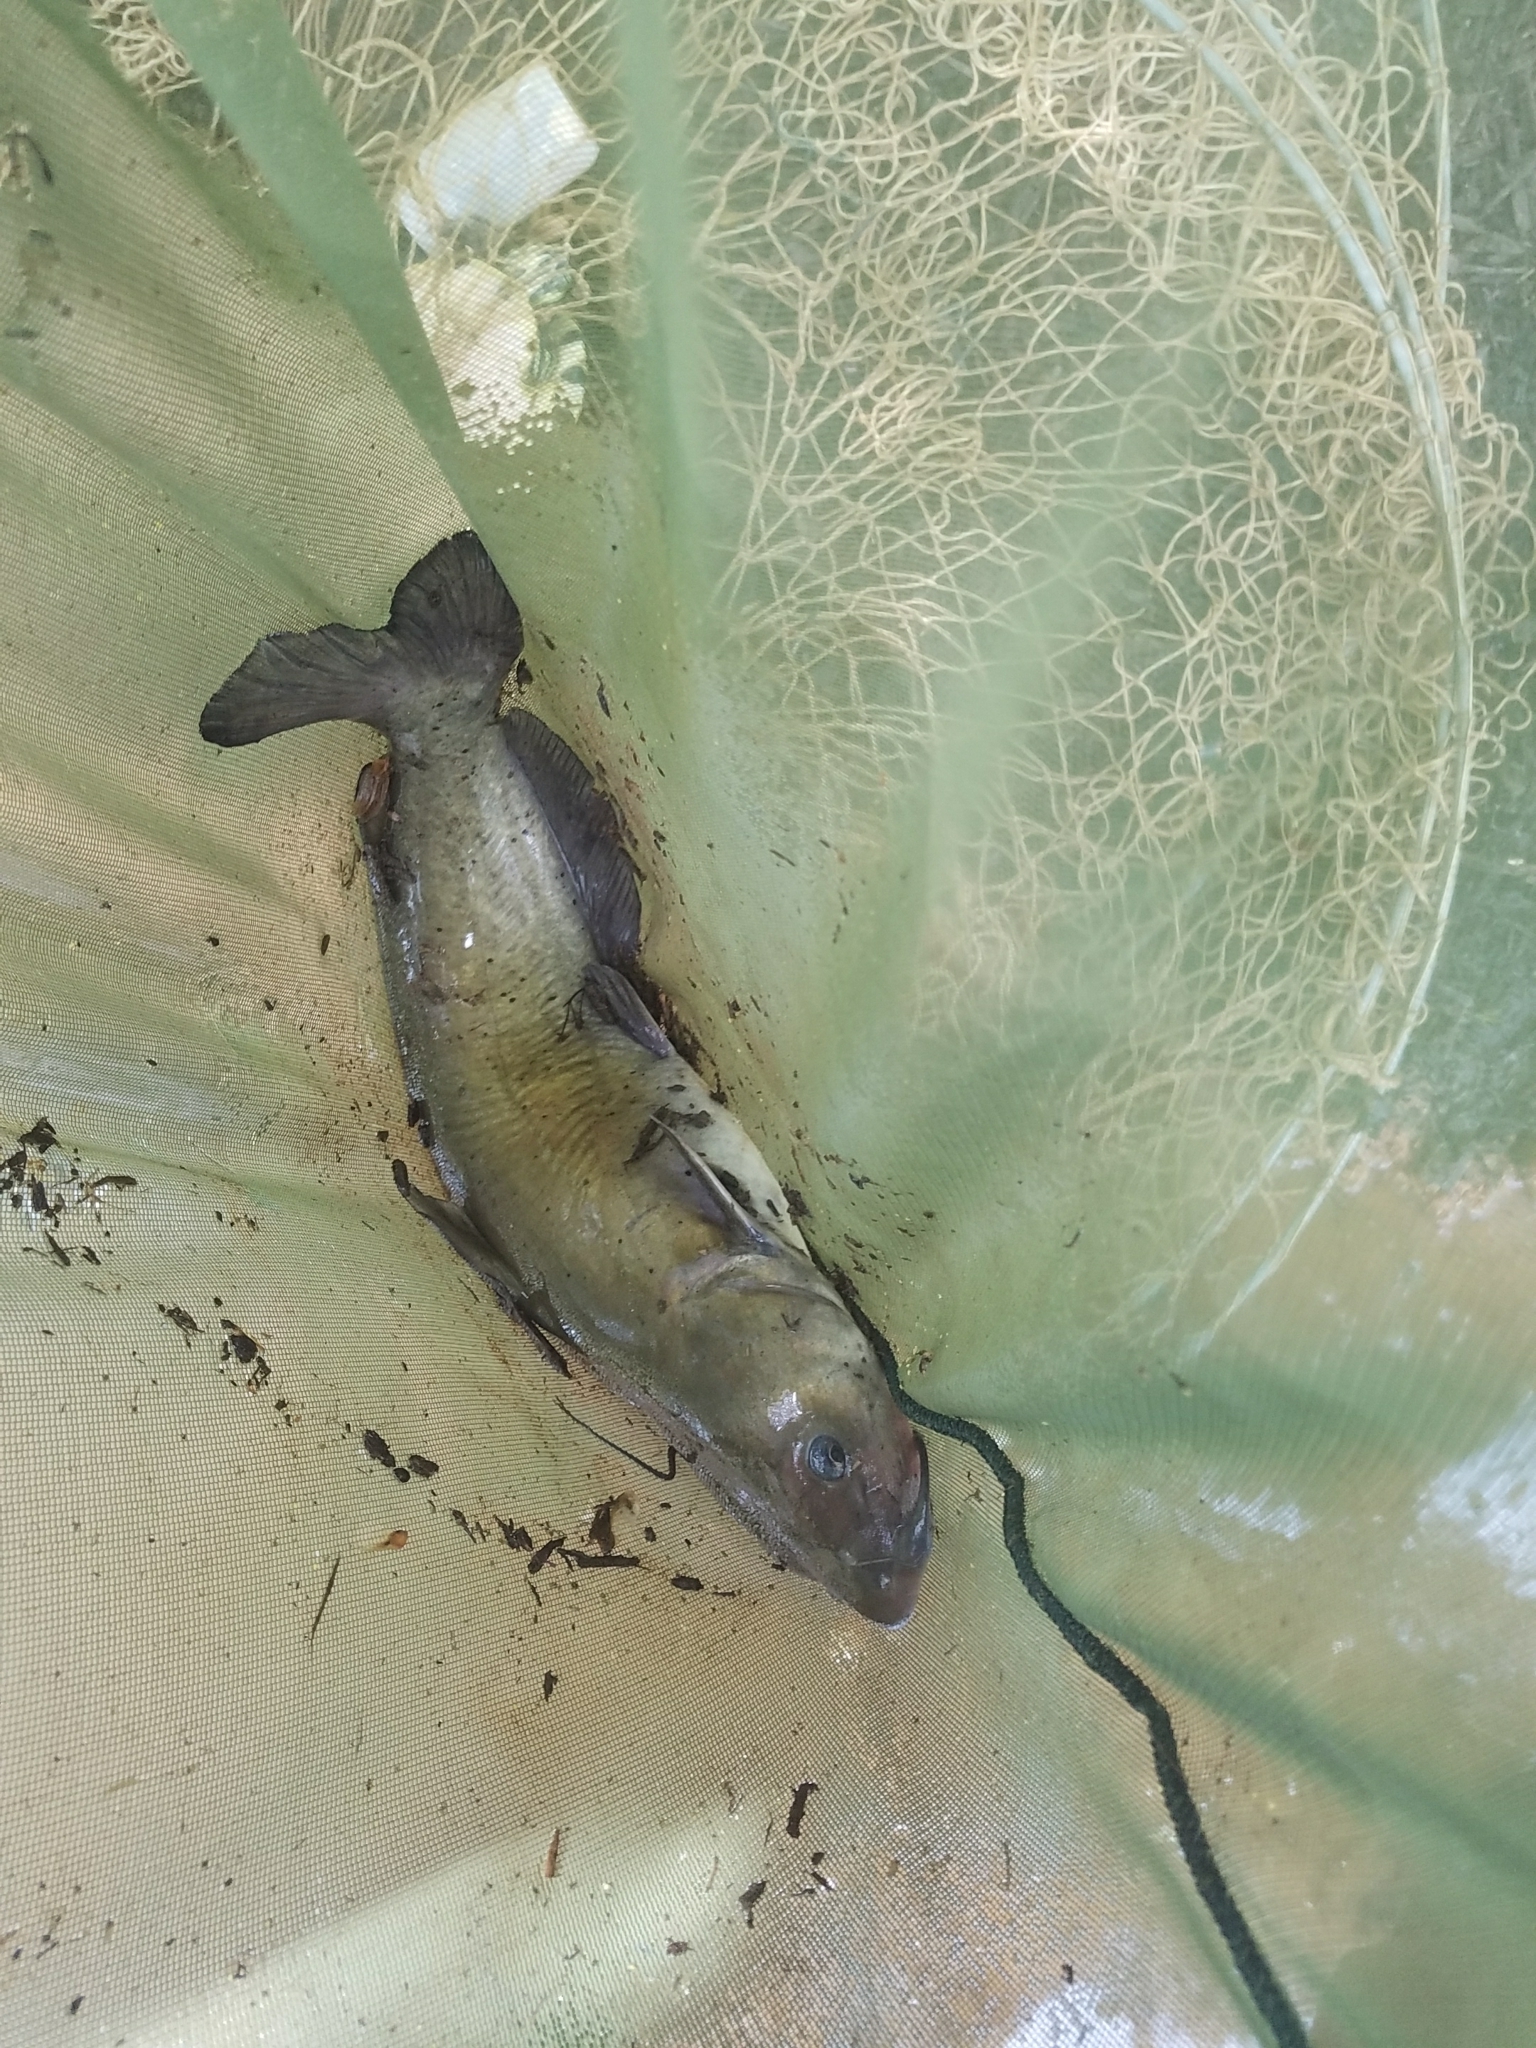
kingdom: Animalia
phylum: Chordata
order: Siluriformes
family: Ictaluridae
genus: Ictalurus
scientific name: Ictalurus punctatus
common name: Channel catfish
